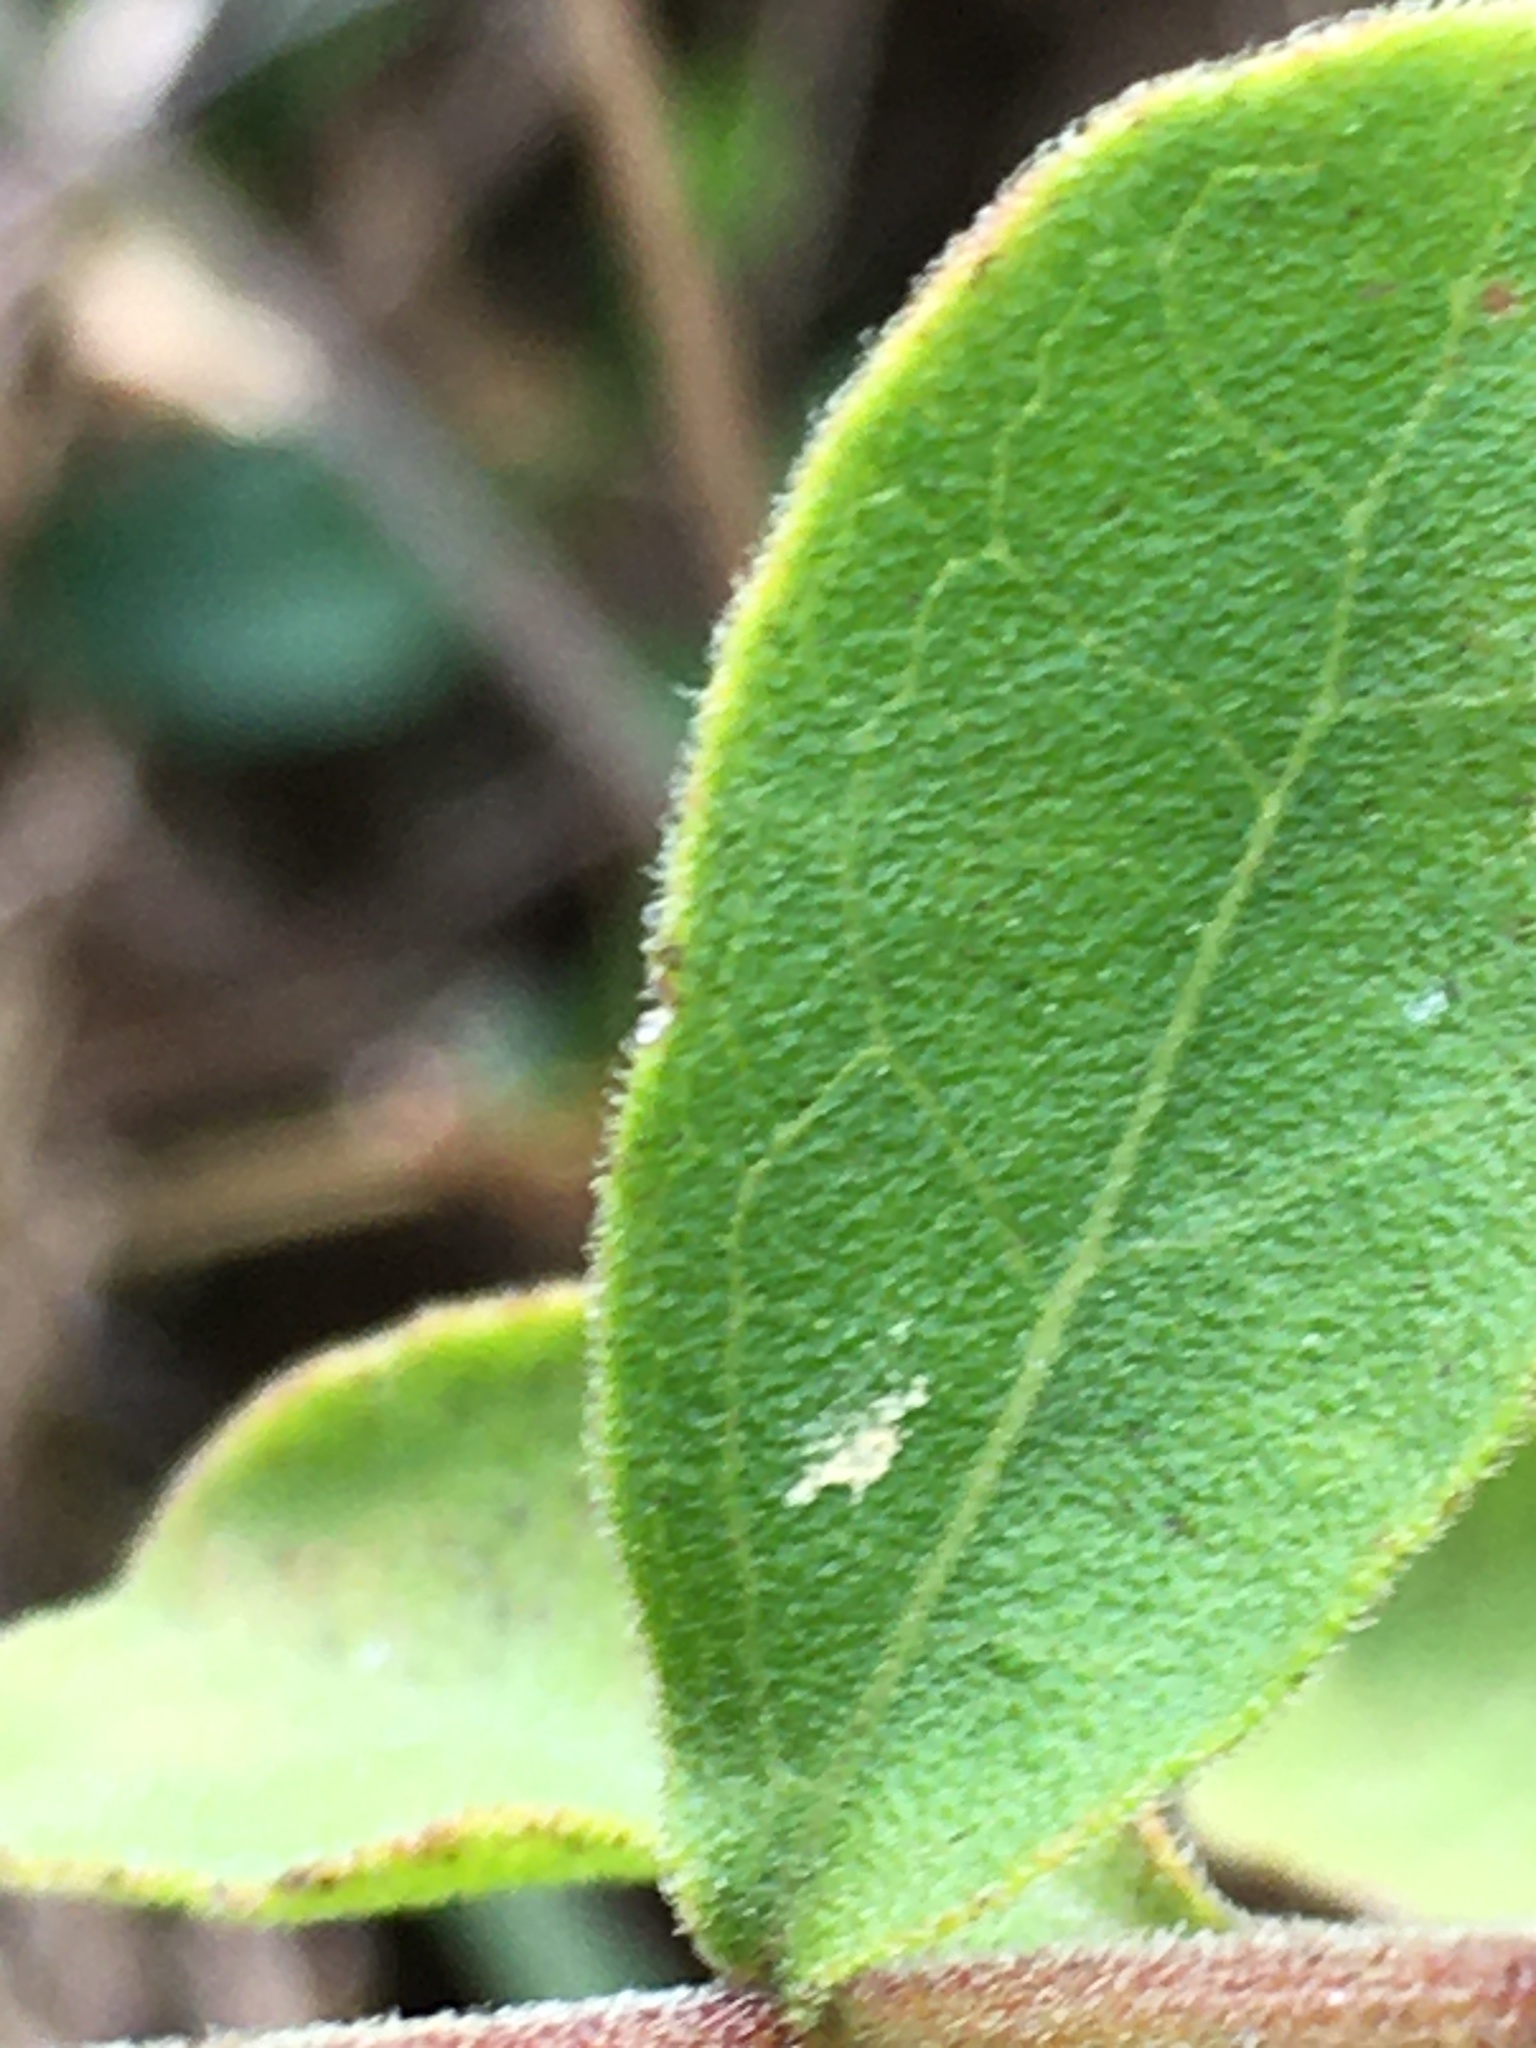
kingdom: Plantae
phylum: Tracheophyta
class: Magnoliopsida
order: Asterales
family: Asteraceae
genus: Sericocarpus
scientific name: Sericocarpus tortifolius
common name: Dixie aster
